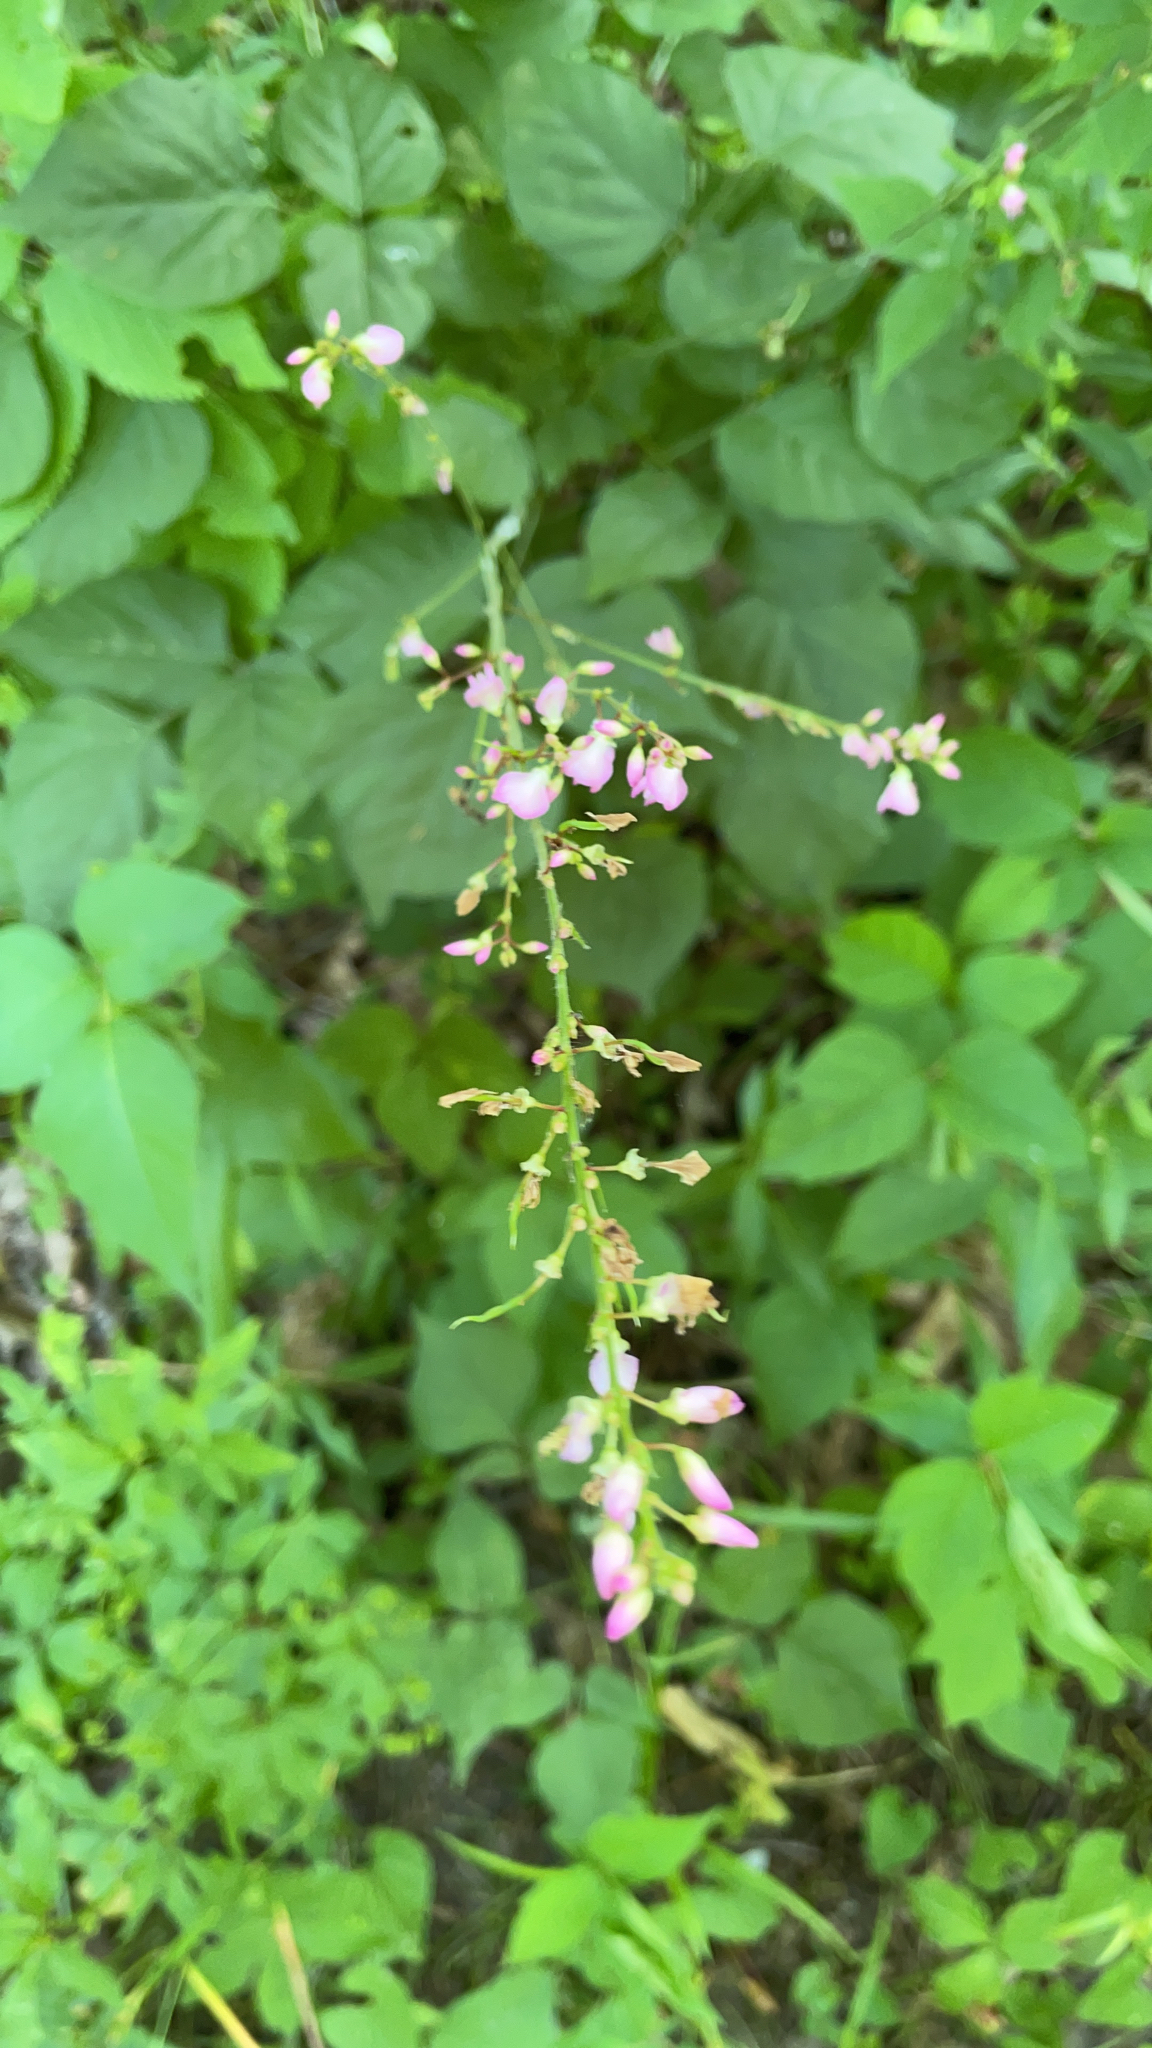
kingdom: Plantae
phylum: Tracheophyta
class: Magnoliopsida
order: Fabales
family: Fabaceae
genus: Hylodesmum
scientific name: Hylodesmum glutinosum
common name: Clustered-leaved tick-trefoil
